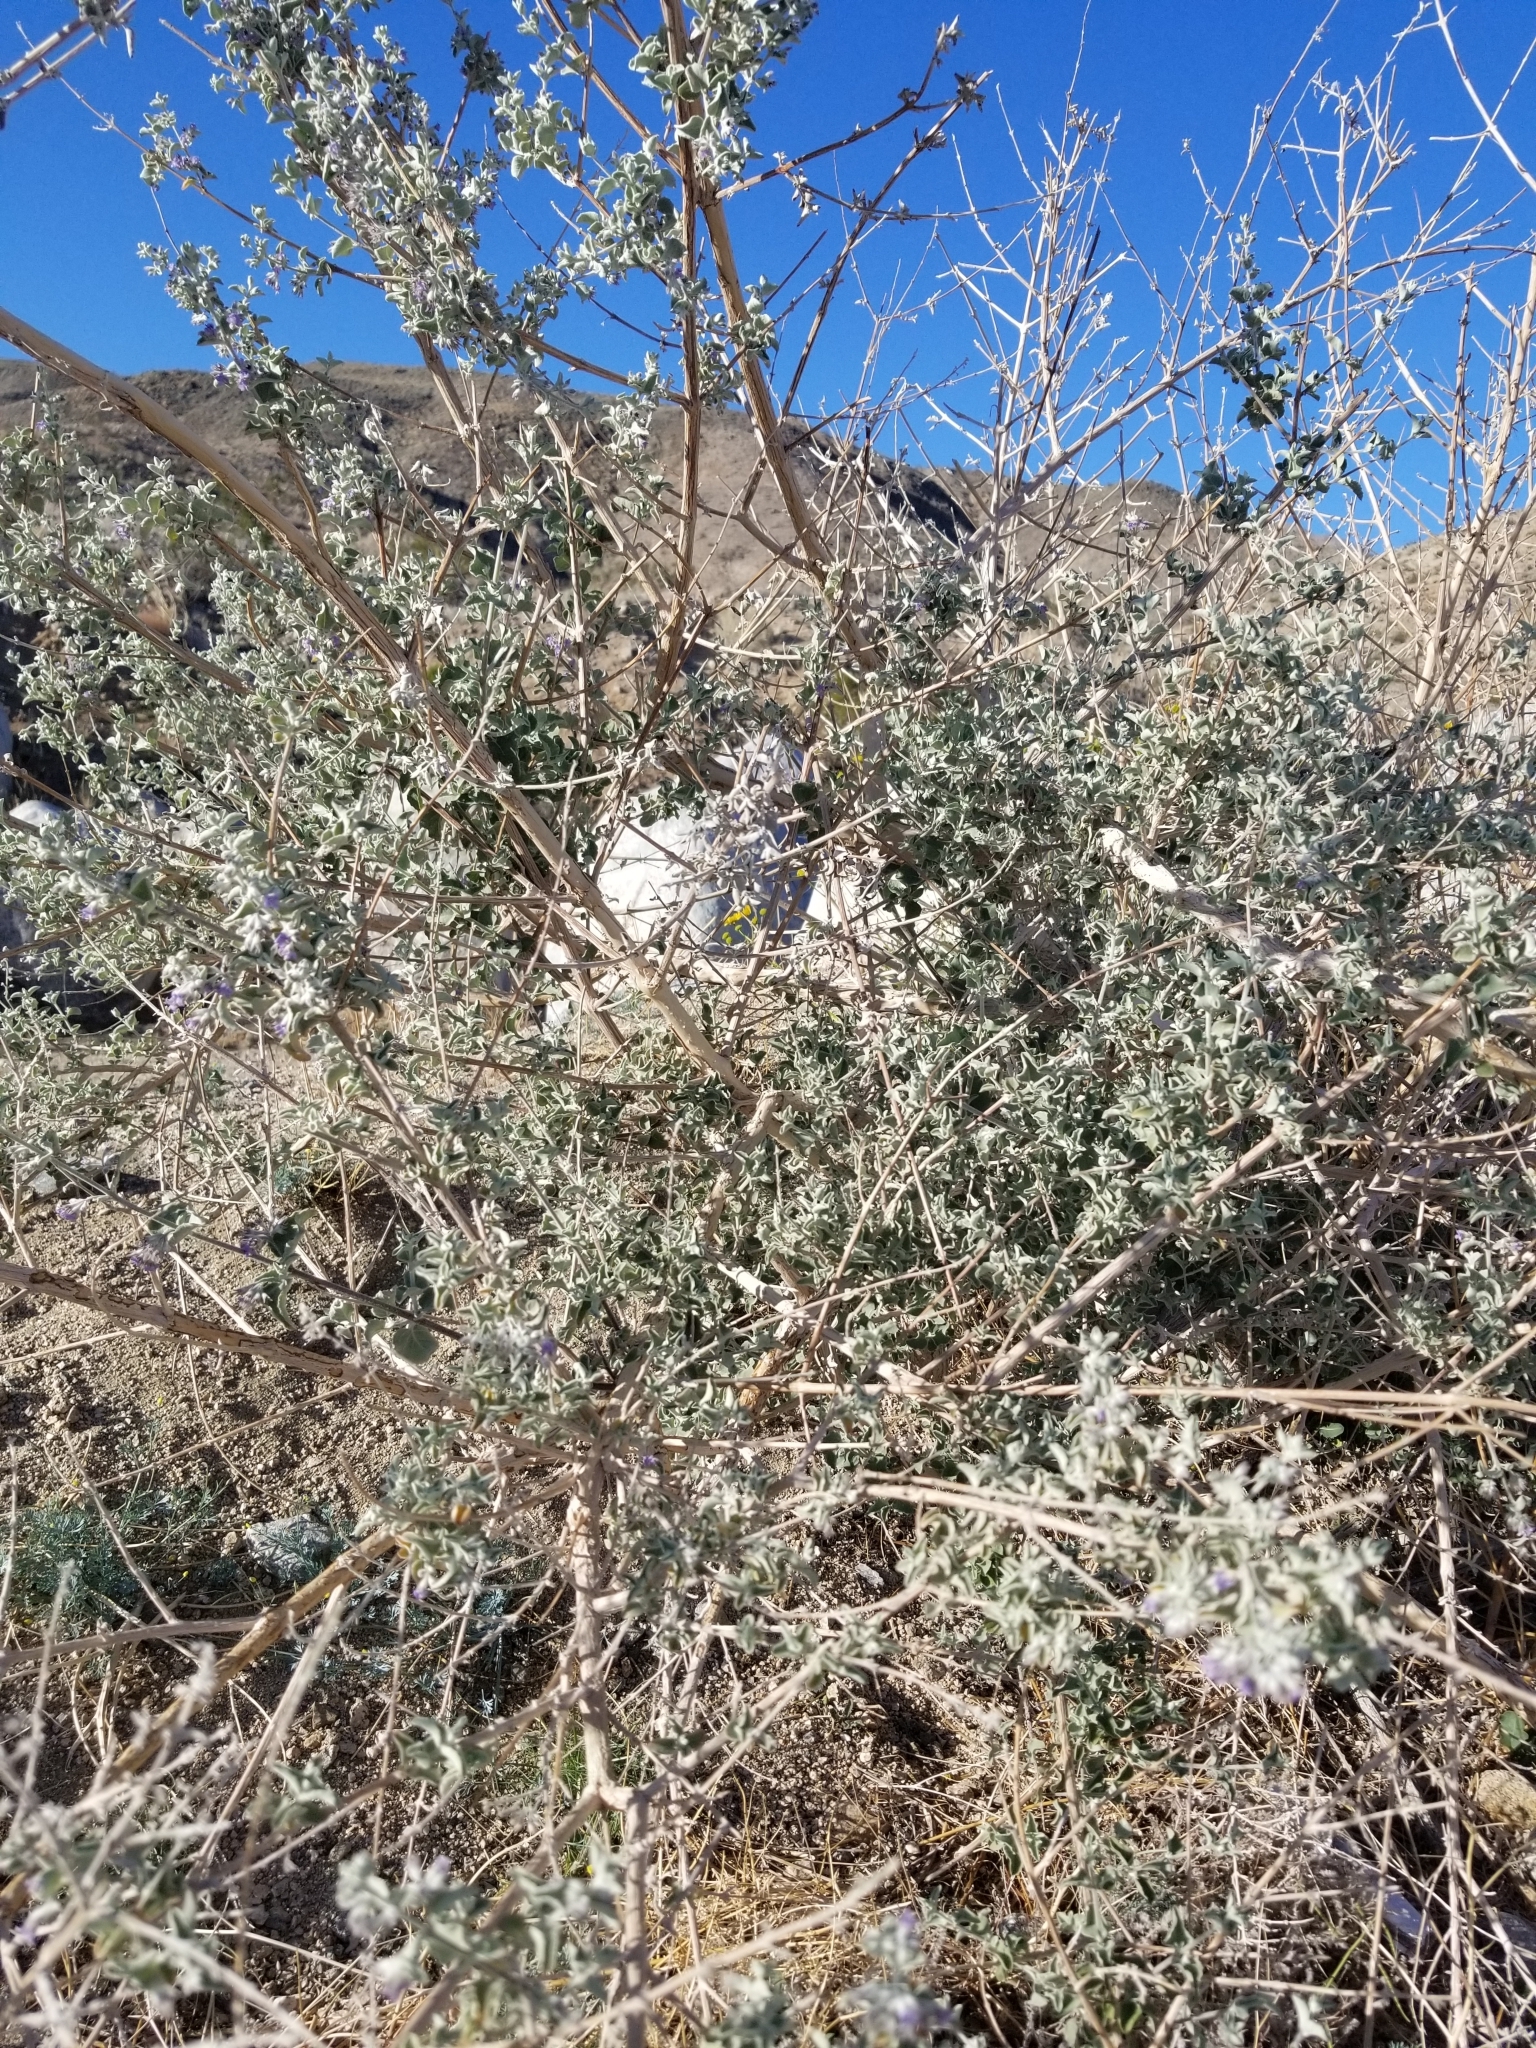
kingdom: Plantae
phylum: Tracheophyta
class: Magnoliopsida
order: Lamiales
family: Lamiaceae
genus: Condea
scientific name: Condea emoryi
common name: Chia
